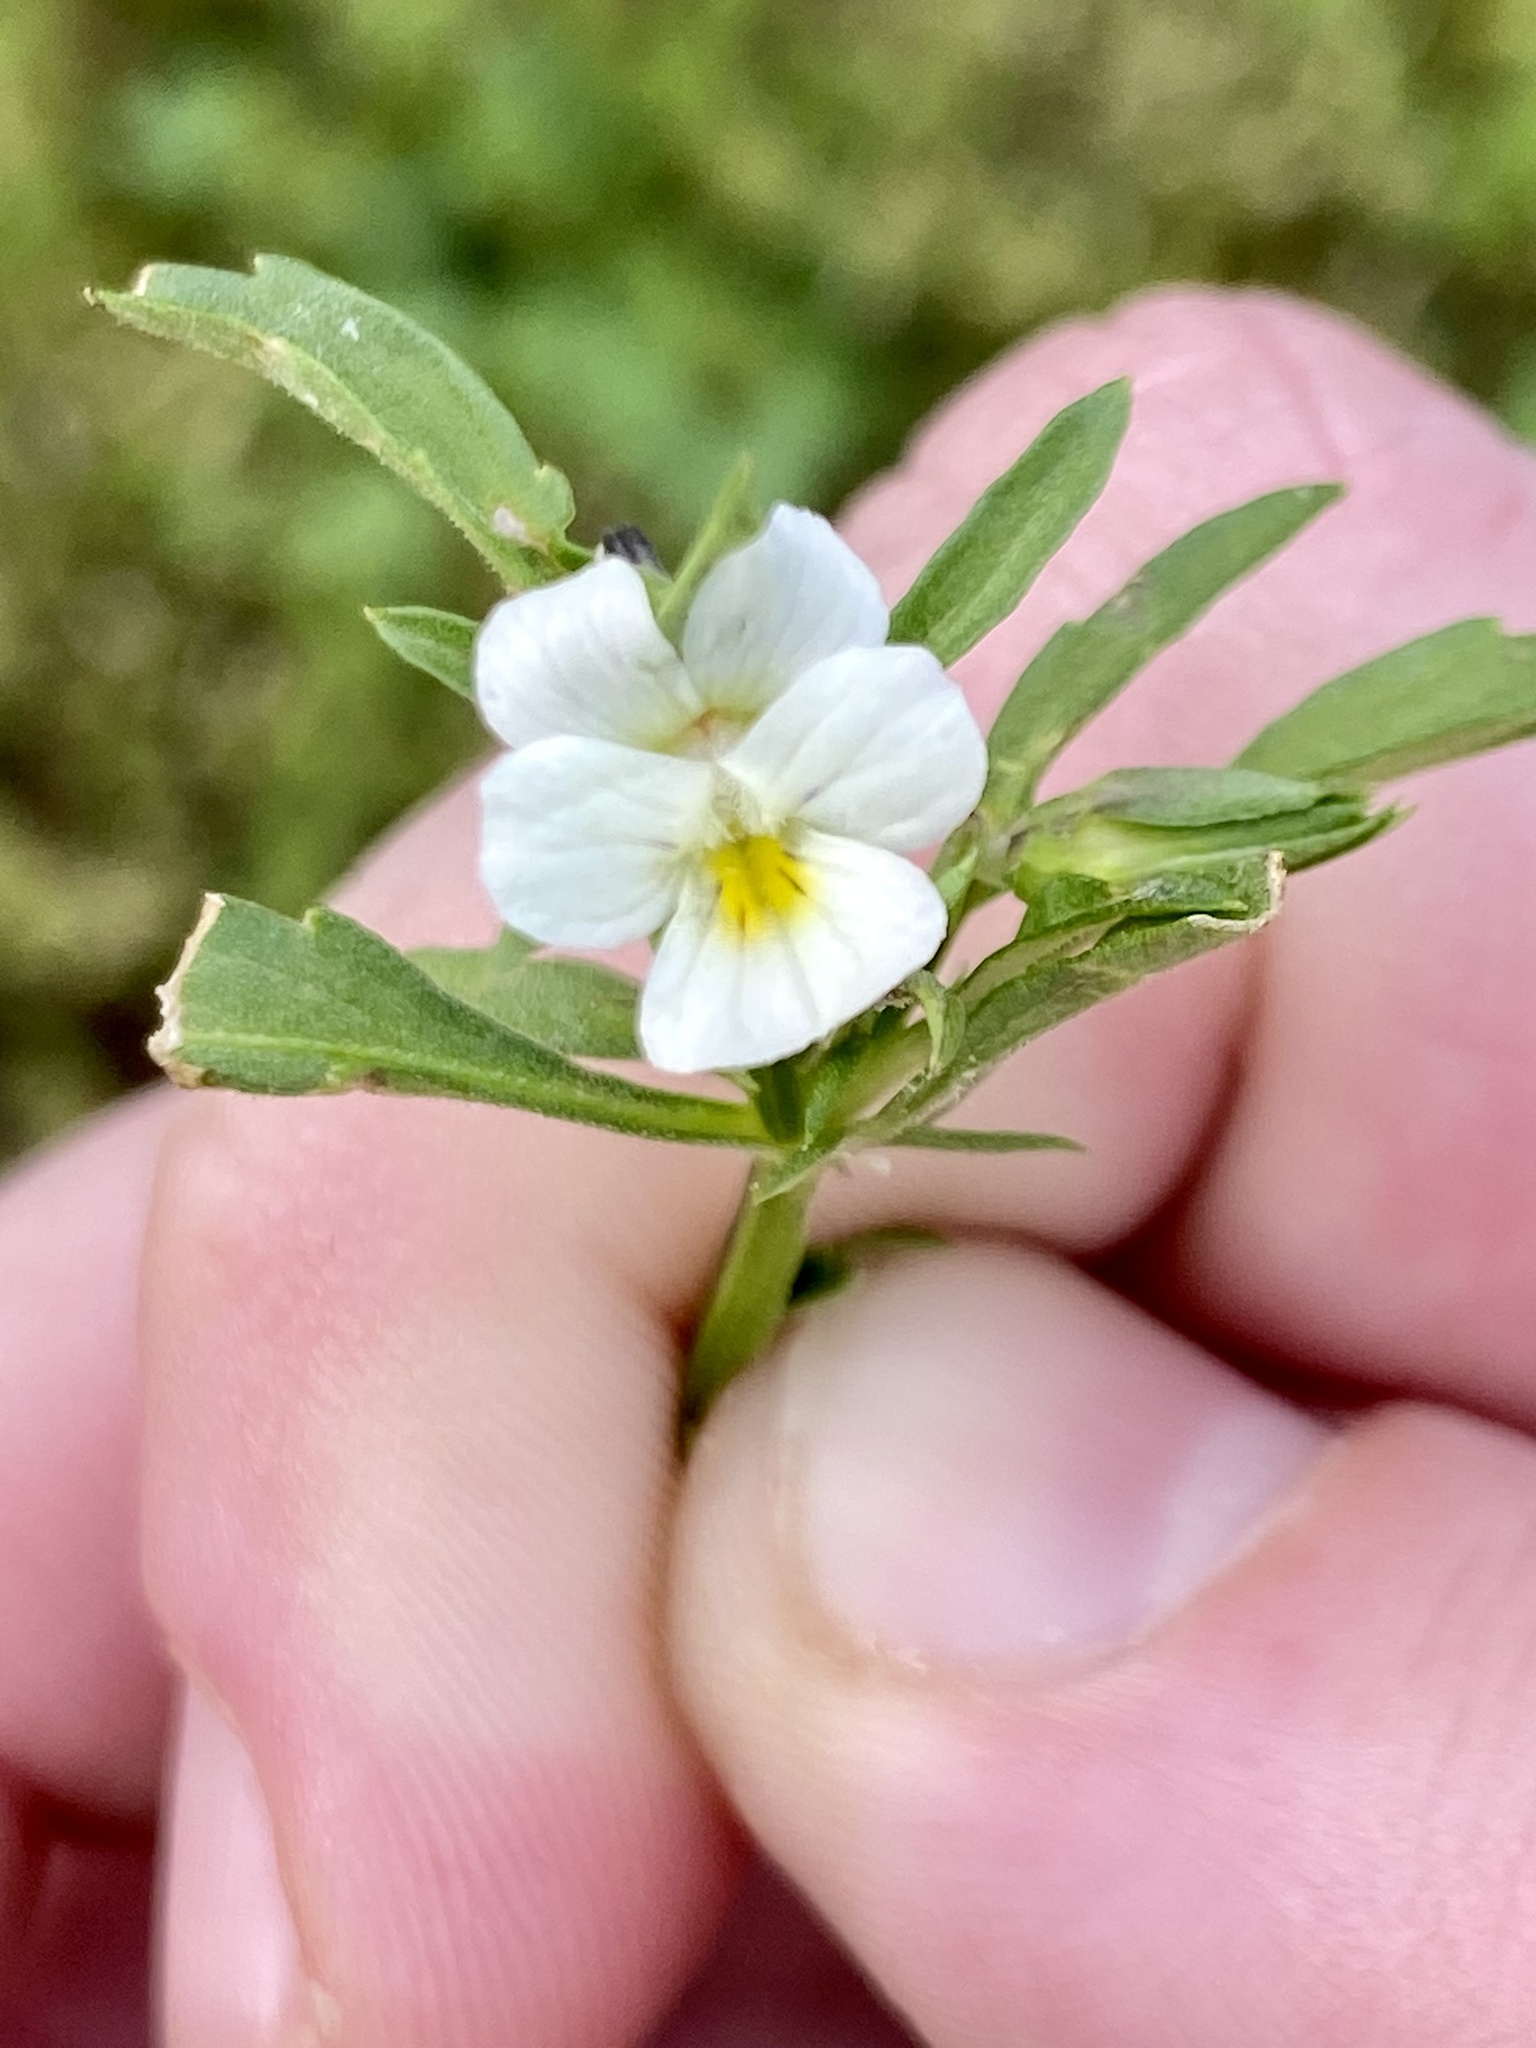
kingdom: Plantae
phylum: Tracheophyta
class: Magnoliopsida
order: Malpighiales
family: Violaceae
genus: Viola
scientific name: Viola arvensis
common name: Field pansy
